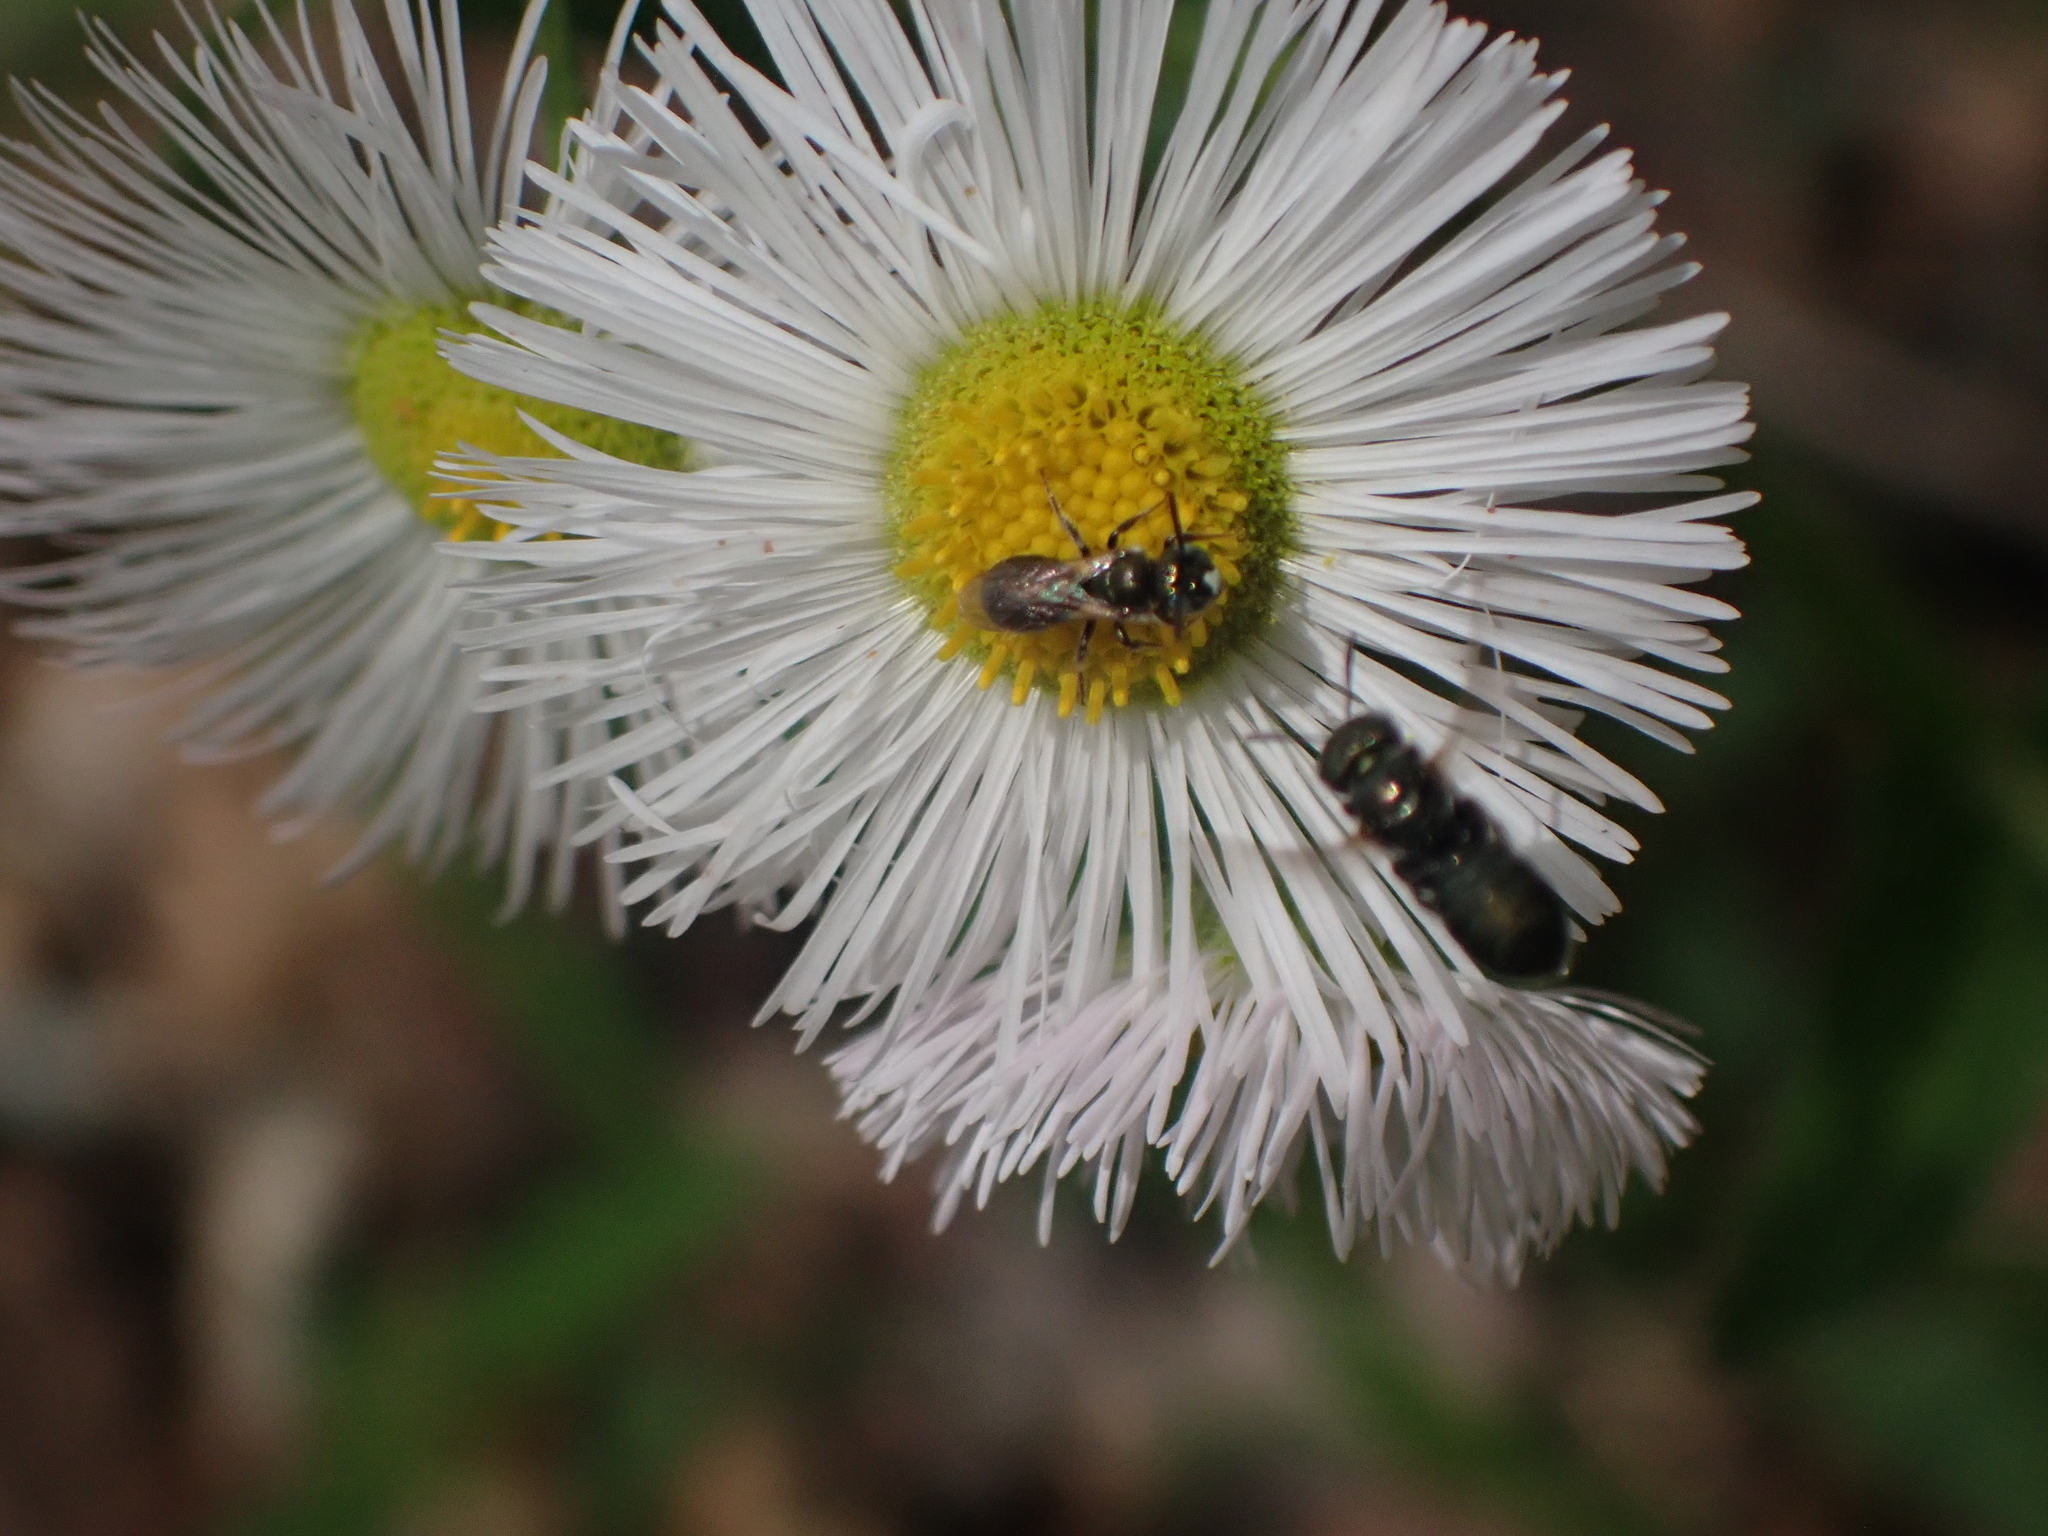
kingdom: Animalia
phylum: Arthropoda
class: Insecta
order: Hymenoptera
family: Apidae
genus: Zadontomerus
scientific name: Zadontomerus
